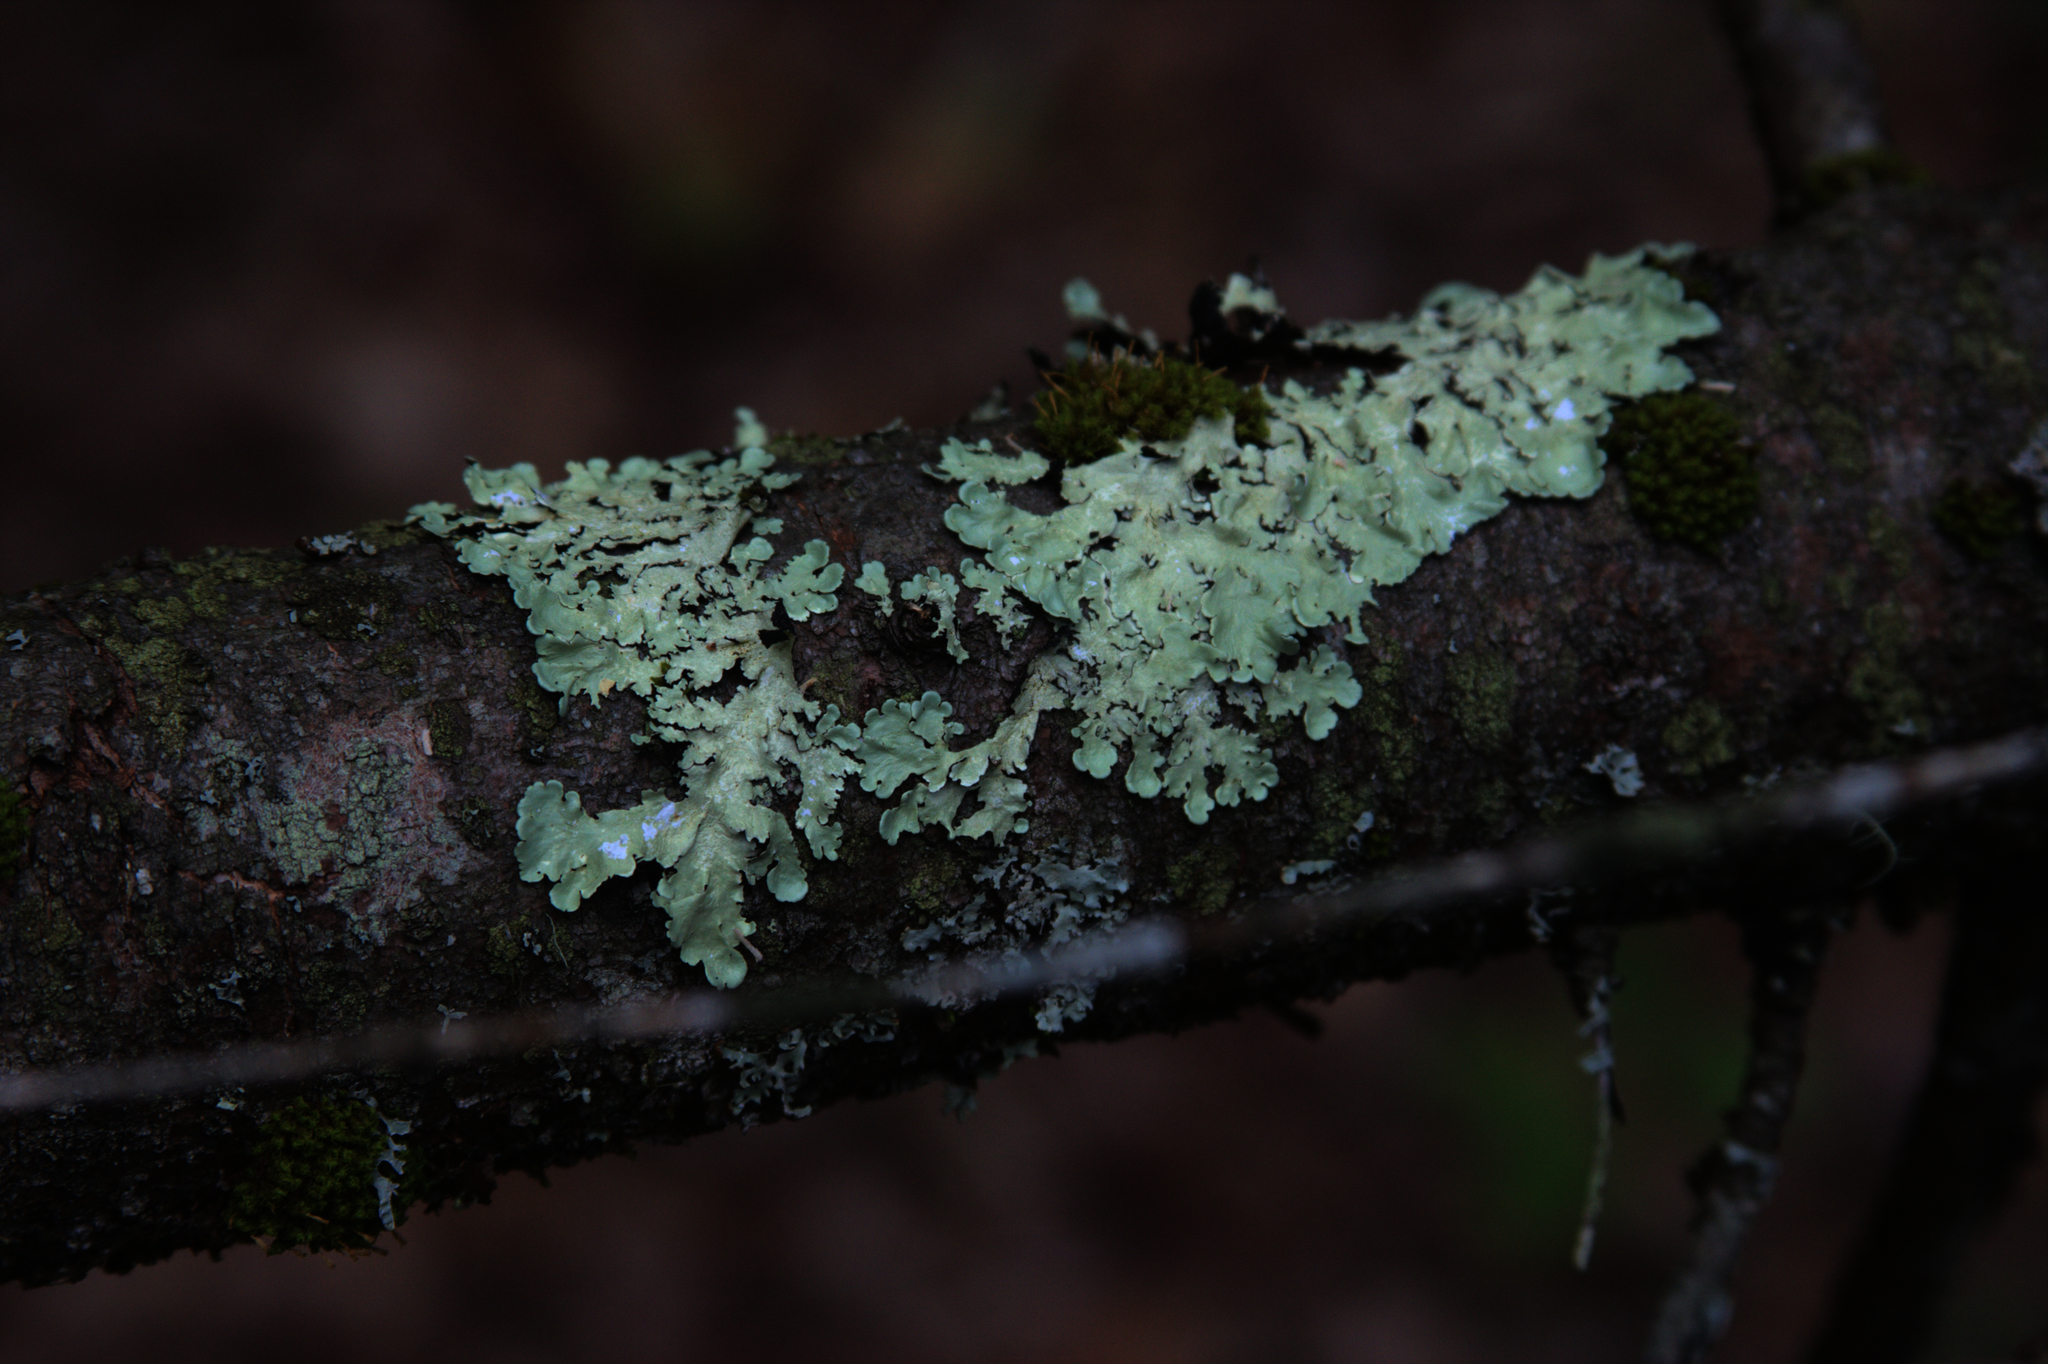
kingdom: Fungi
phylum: Ascomycota
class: Lecanoromycetes
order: Lecanorales
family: Parmeliaceae
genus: Flavoparmelia
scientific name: Flavoparmelia caperata
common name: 40-mile per hour lichen
